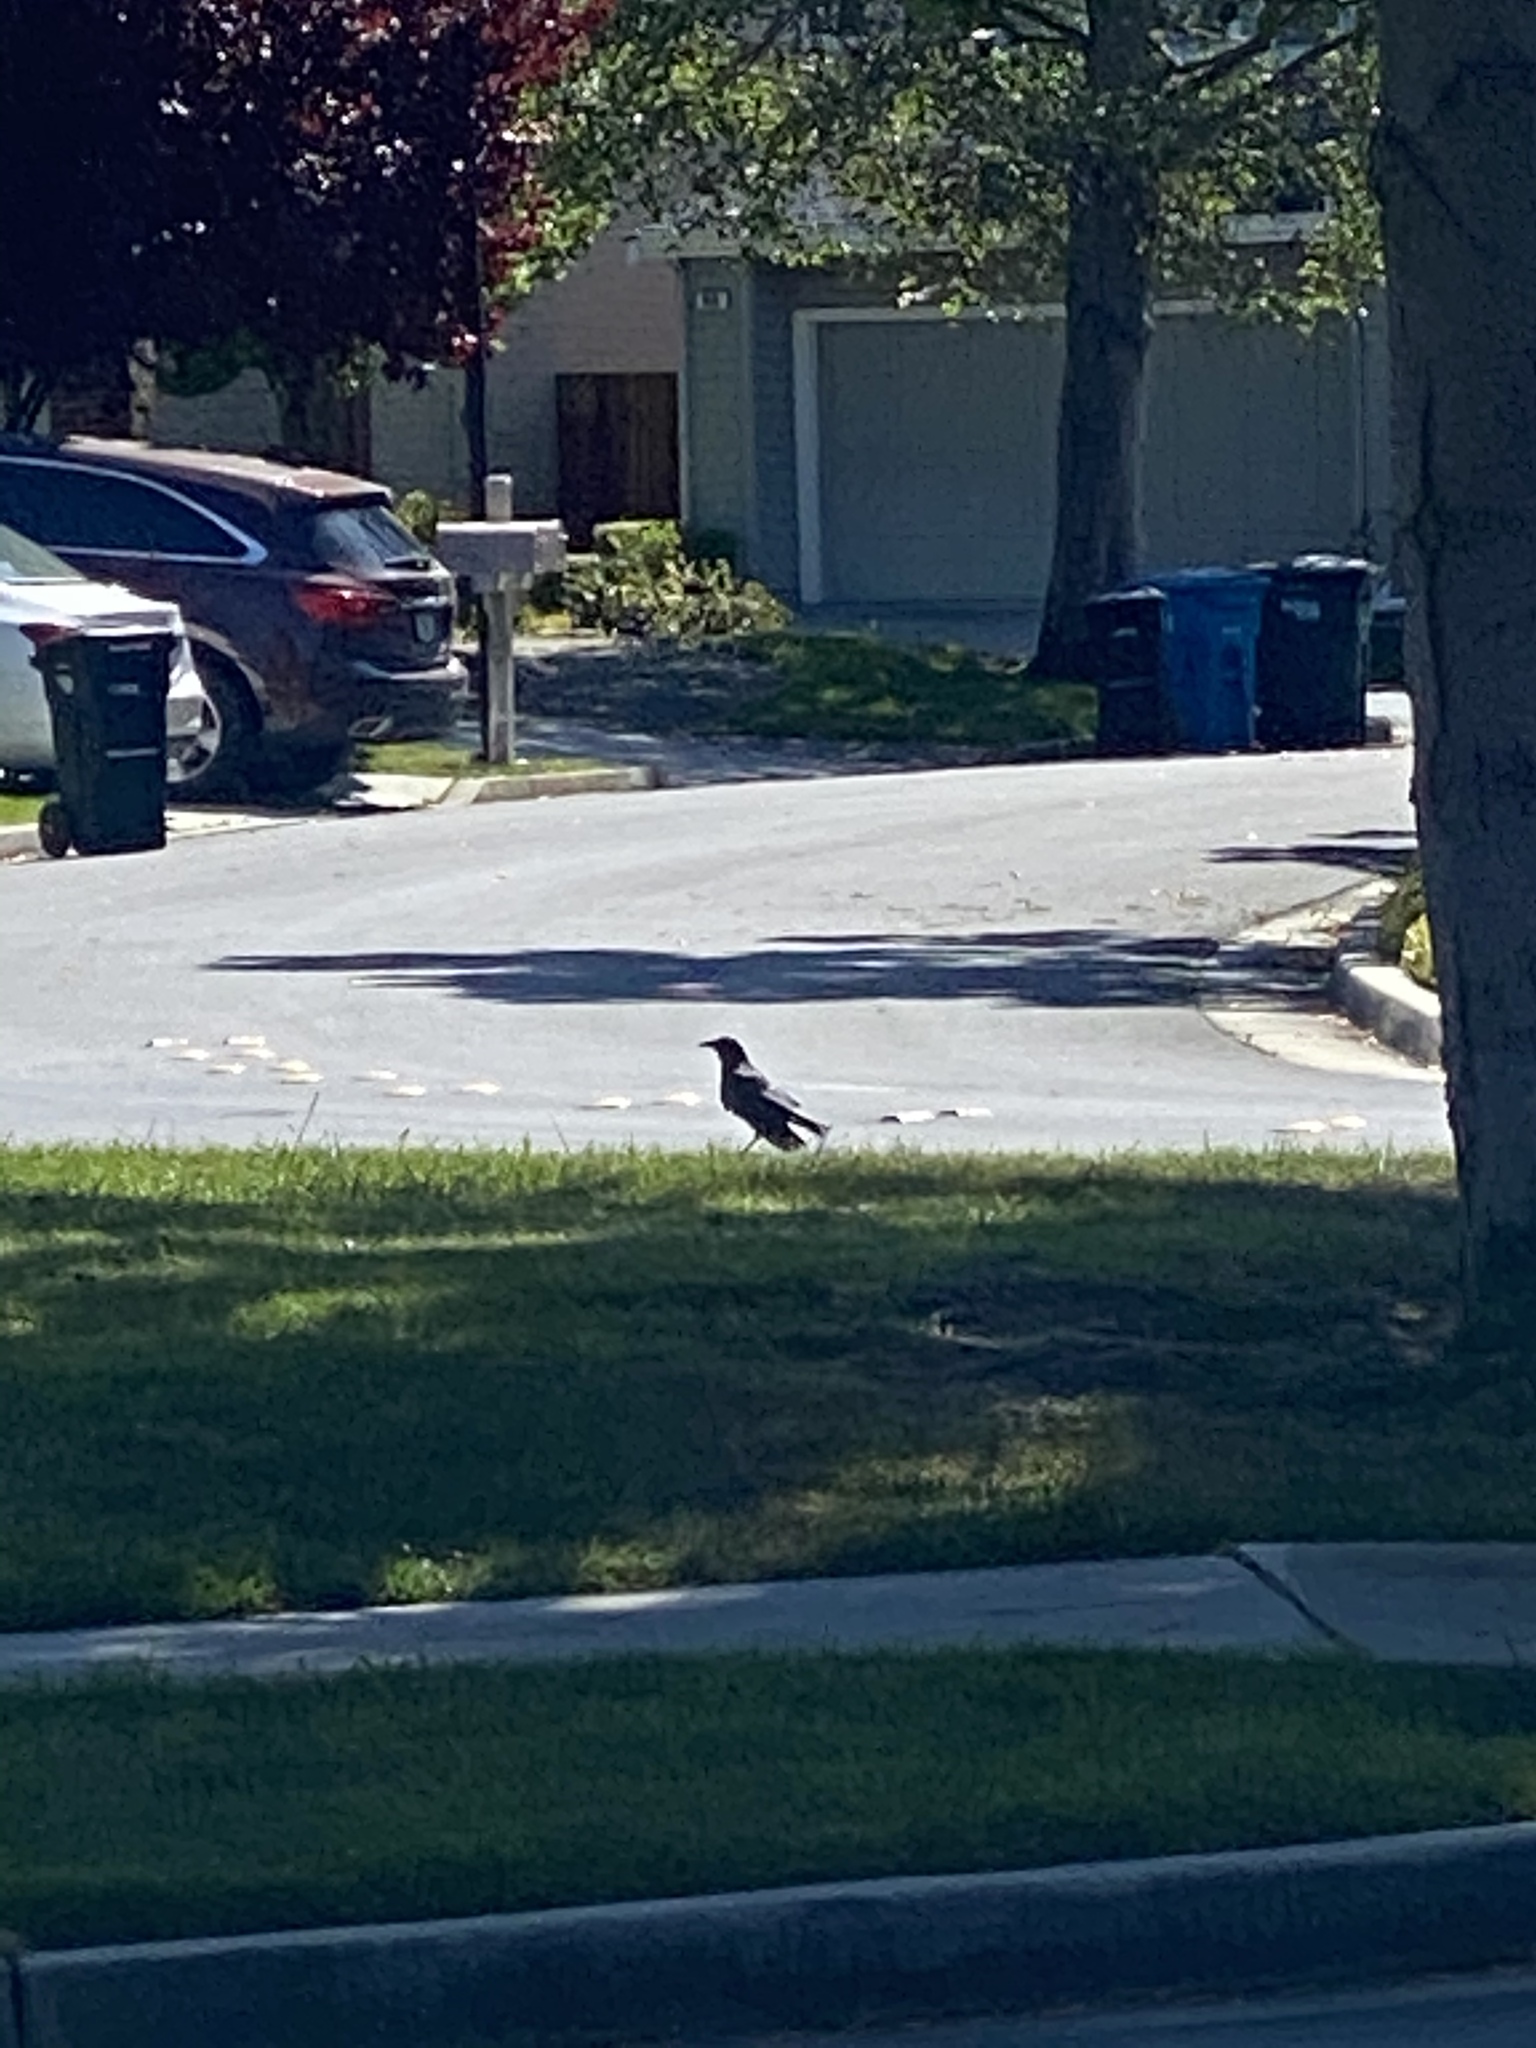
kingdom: Animalia
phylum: Chordata
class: Aves
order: Passeriformes
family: Corvidae
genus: Corvus
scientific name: Corvus brachyrhynchos
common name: American crow
